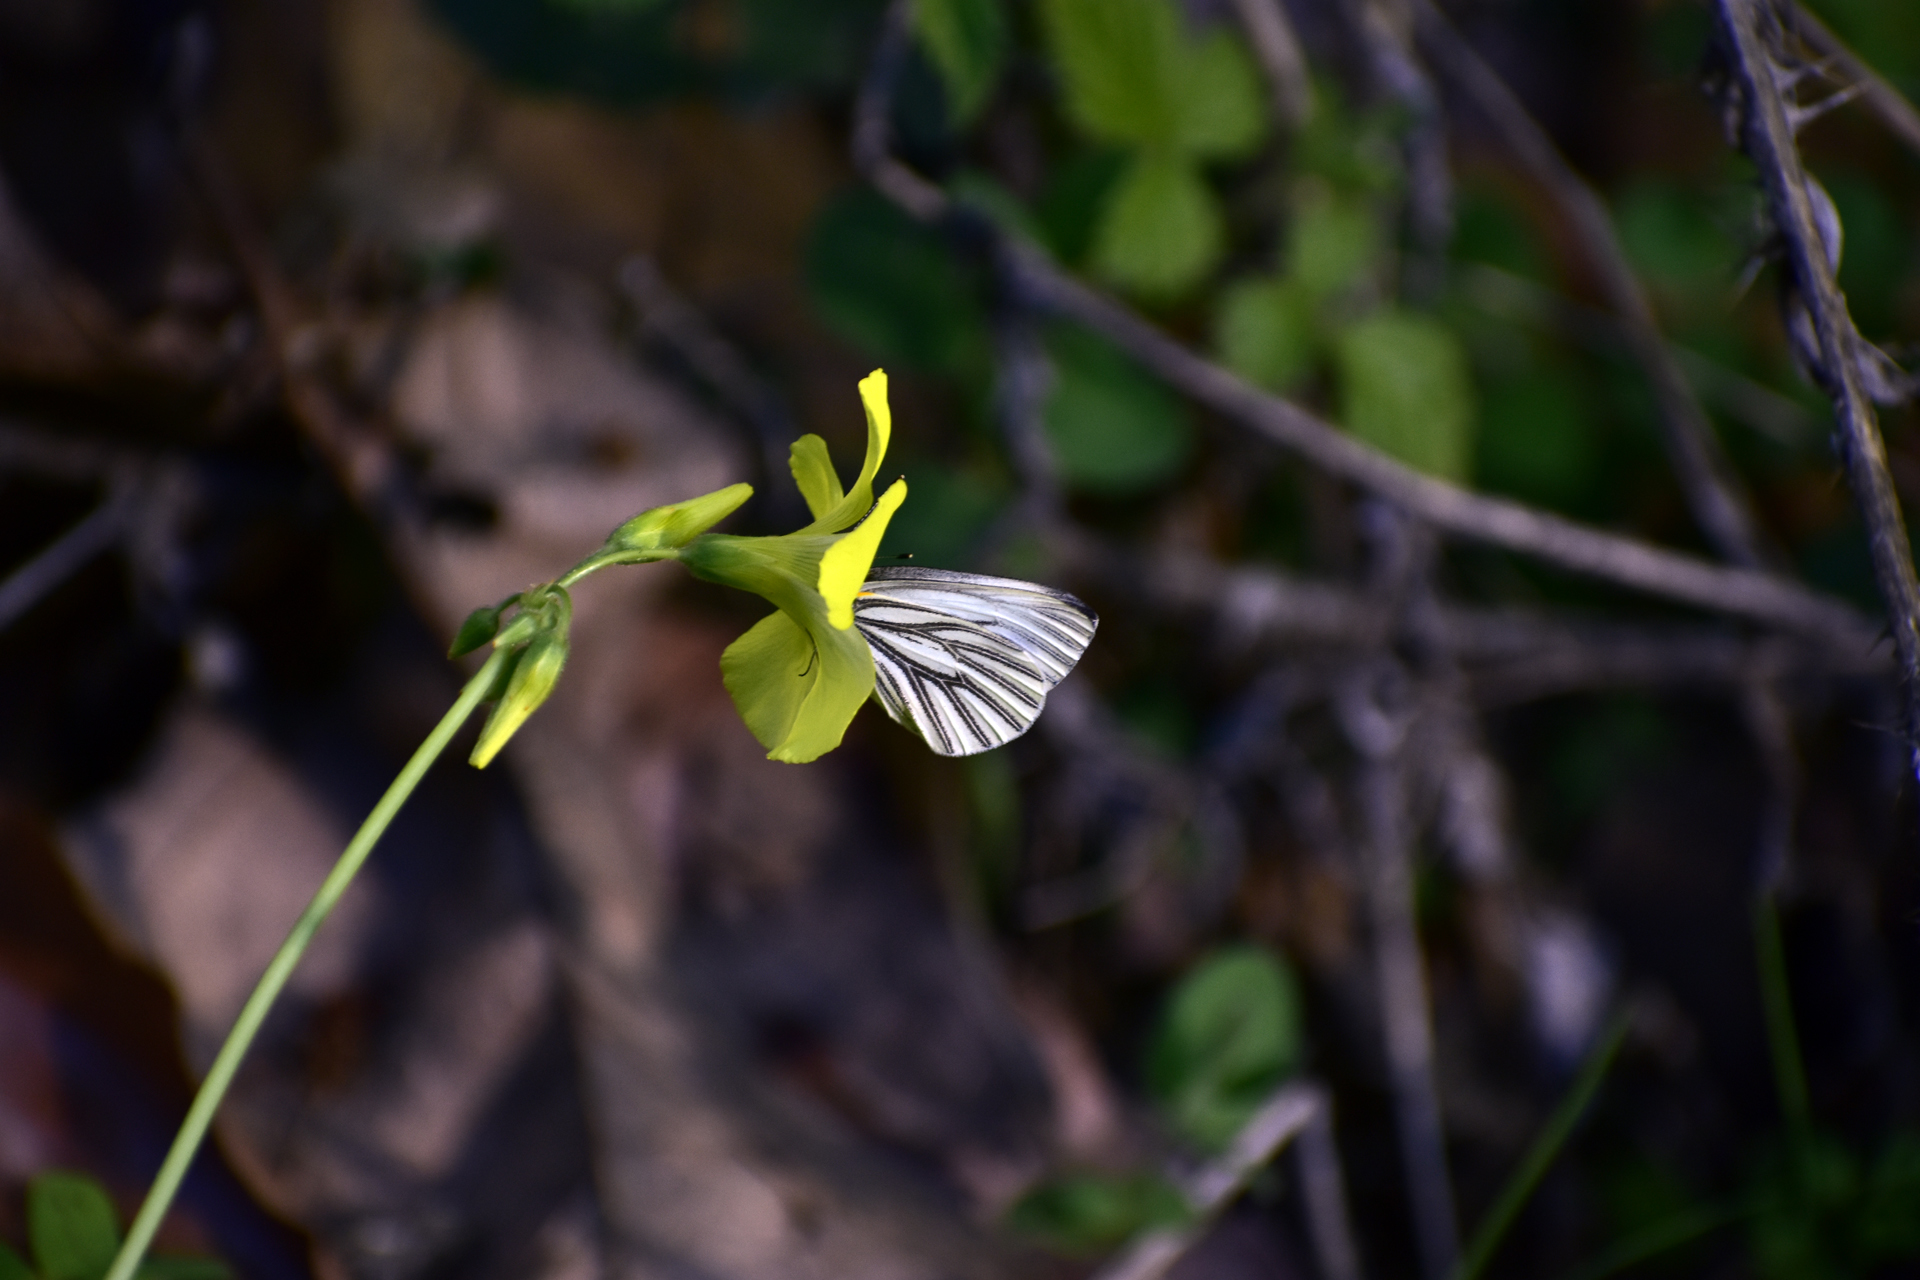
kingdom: Animalia
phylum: Arthropoda
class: Insecta
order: Lepidoptera
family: Pieridae
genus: Pieris
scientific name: Pieris marginalis
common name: Margined white
